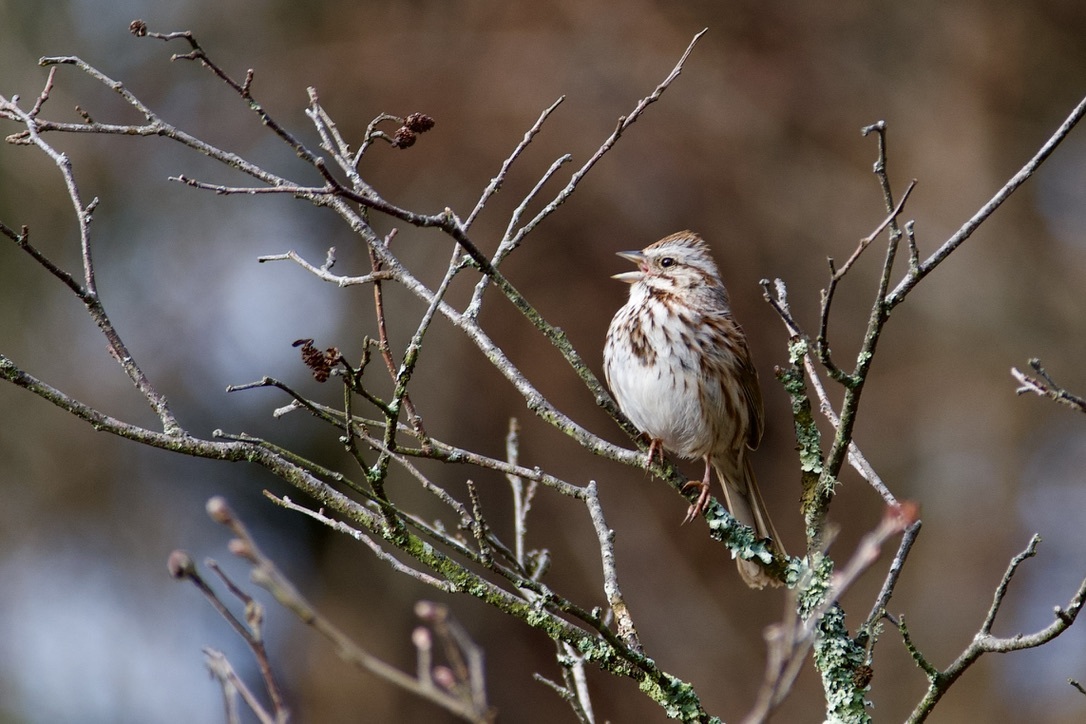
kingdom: Animalia
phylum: Chordata
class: Aves
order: Passeriformes
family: Passerellidae
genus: Melospiza
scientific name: Melospiza melodia
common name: Song sparrow
